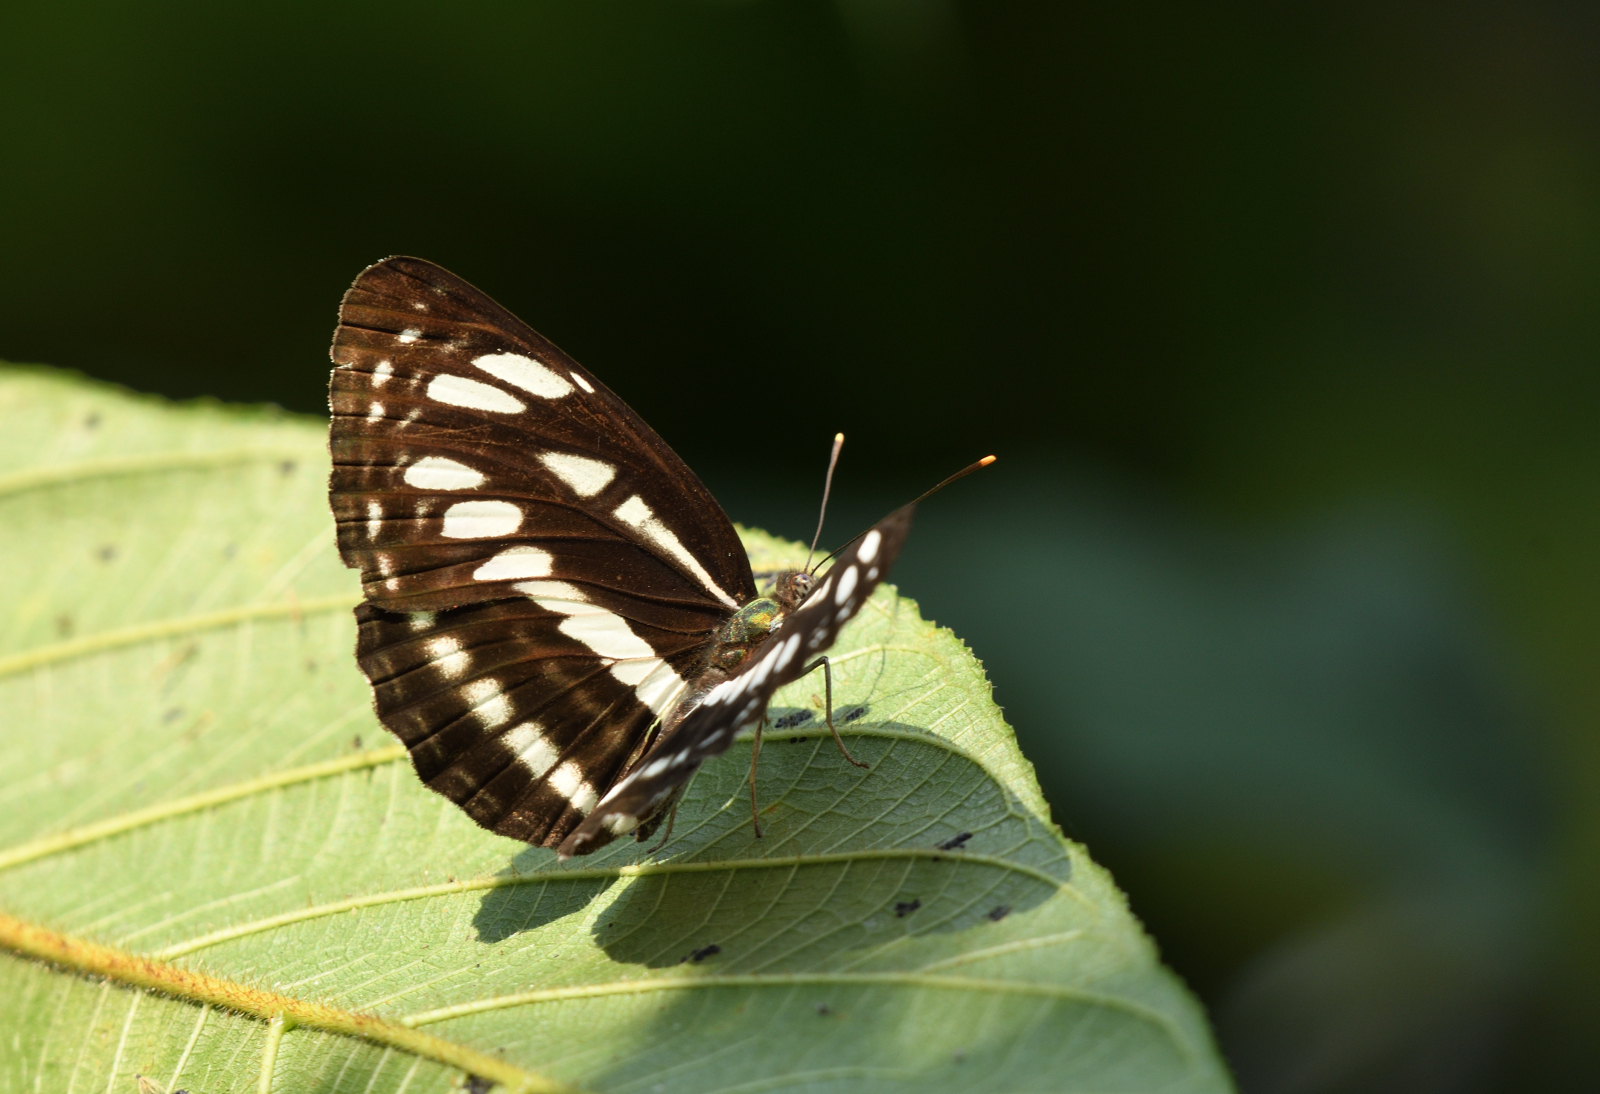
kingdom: Animalia
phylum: Arthropoda
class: Insecta
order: Lepidoptera
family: Nymphalidae
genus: Neptis
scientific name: Neptis hylas
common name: Common sailer
